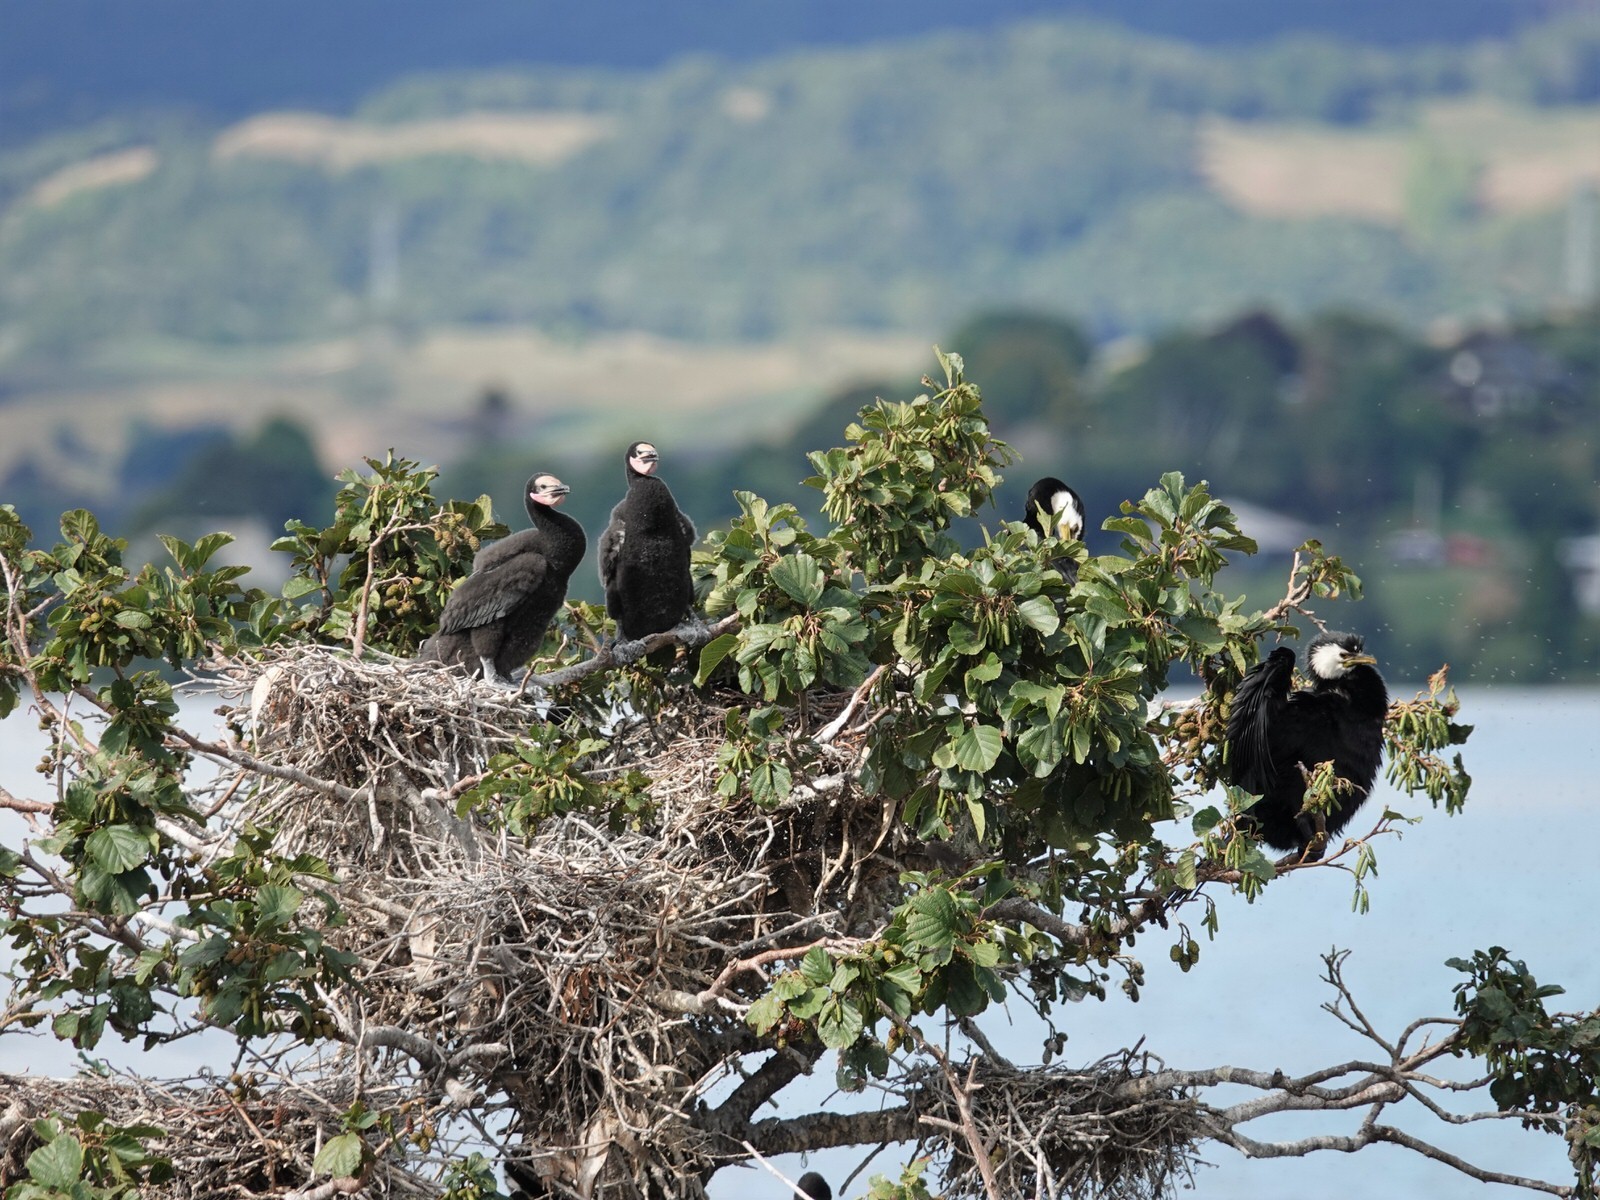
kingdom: Animalia
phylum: Chordata
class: Aves
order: Suliformes
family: Phalacrocoracidae
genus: Microcarbo
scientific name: Microcarbo melanoleucos
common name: Little pied cormorant
